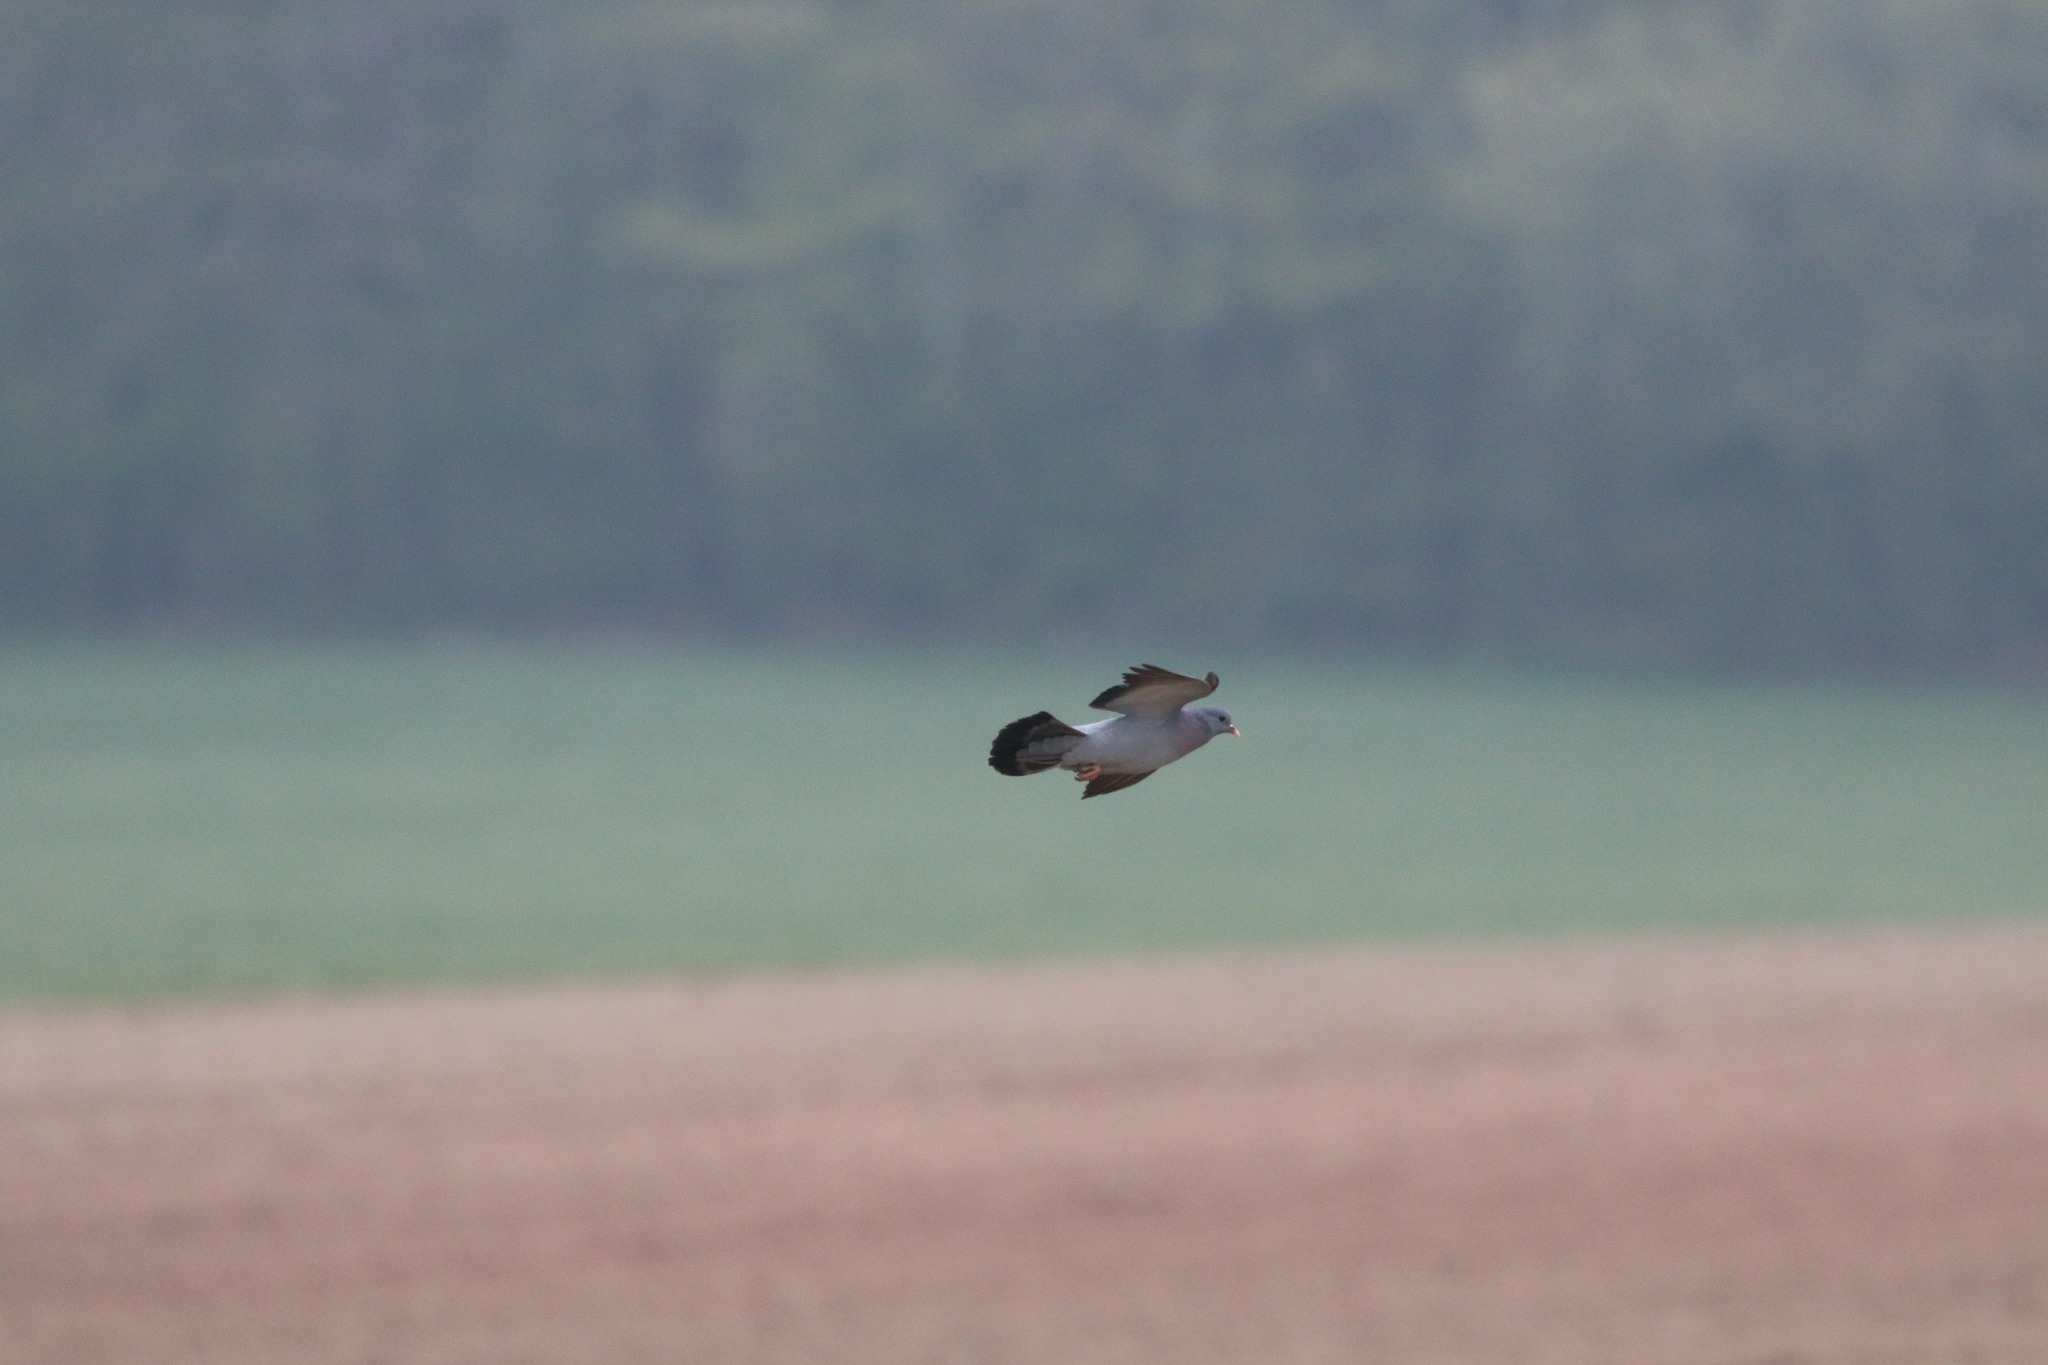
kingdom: Animalia
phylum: Chordata
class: Aves
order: Columbiformes
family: Columbidae
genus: Columba
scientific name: Columba palumbus
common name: Common wood pigeon
